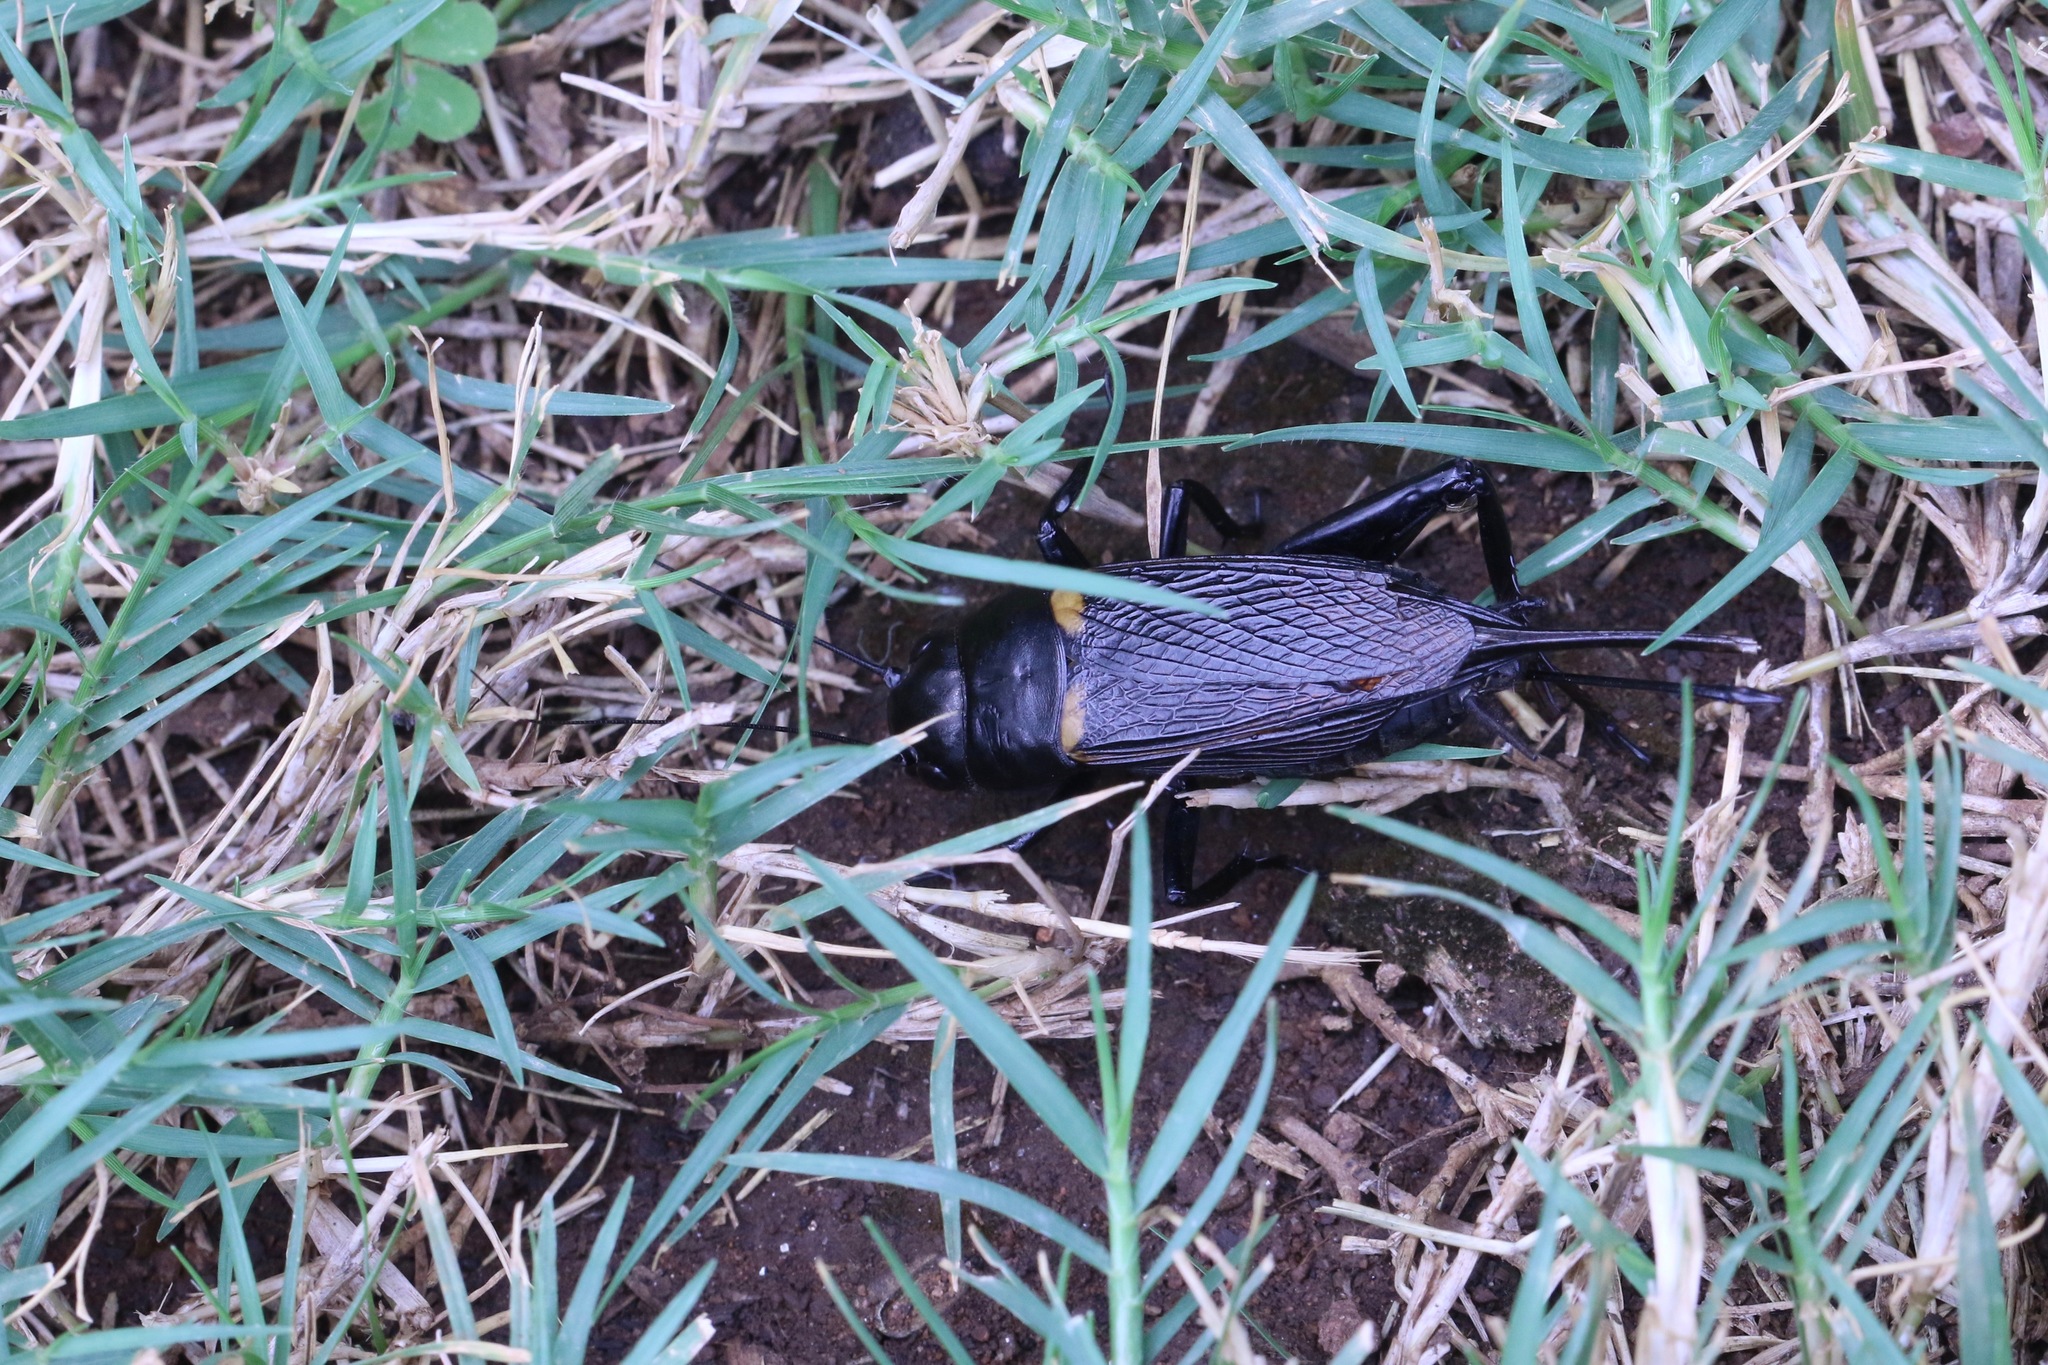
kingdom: Animalia
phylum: Arthropoda
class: Insecta
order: Orthoptera
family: Gryllidae
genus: Gryllus
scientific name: Gryllus bimaculatus
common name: Two-spotted cricket
